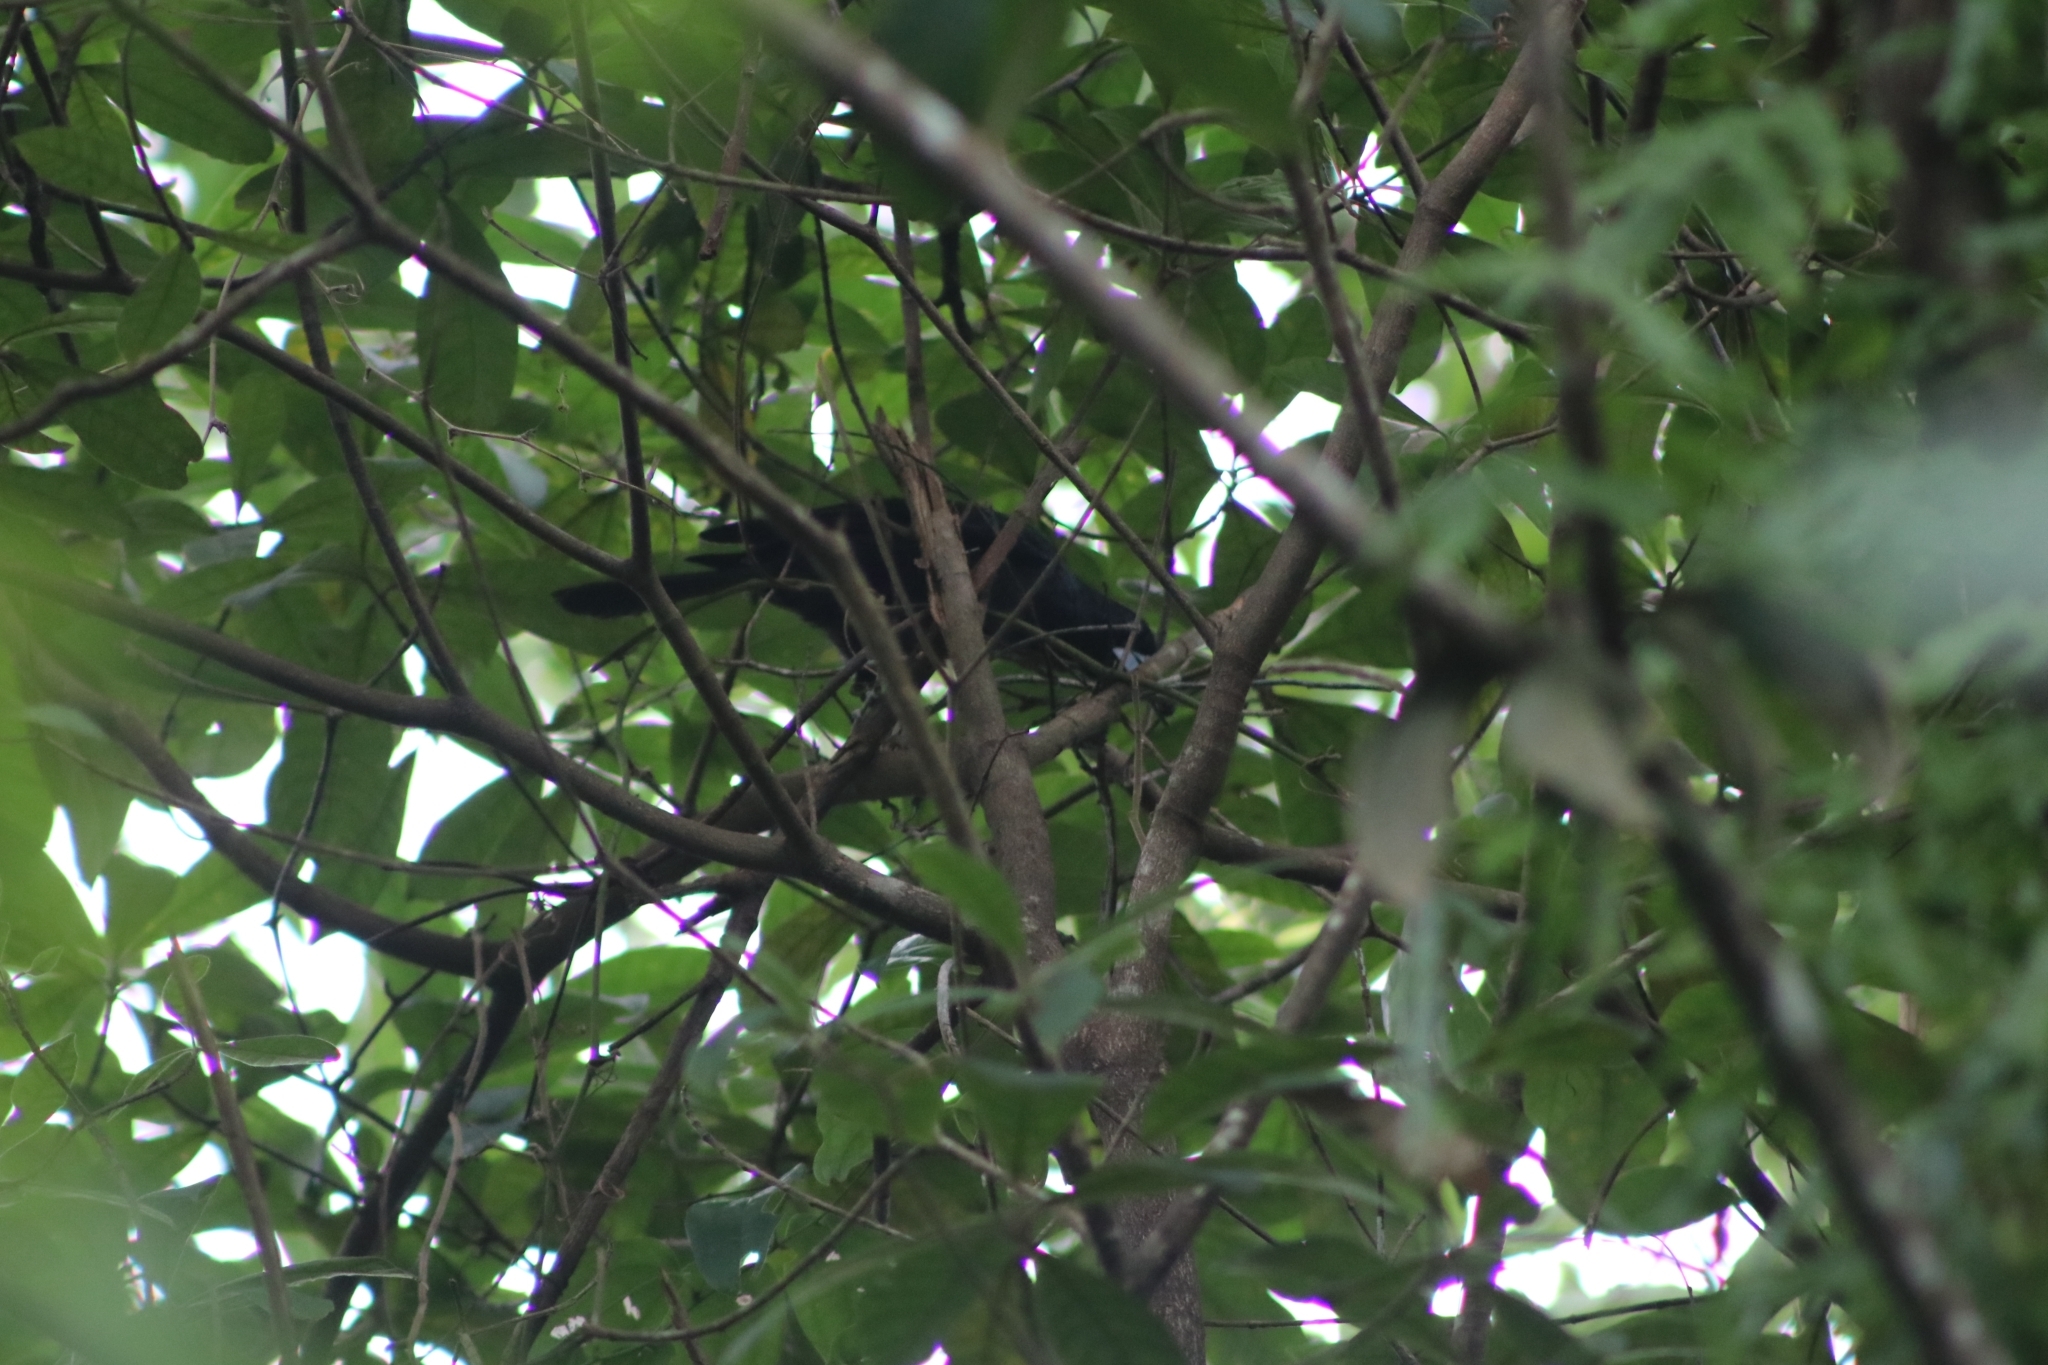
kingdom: Animalia
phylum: Chordata
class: Aves
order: Passeriformes
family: Artamidae
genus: Melloria
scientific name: Melloria quoyi
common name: Black butcherbird
